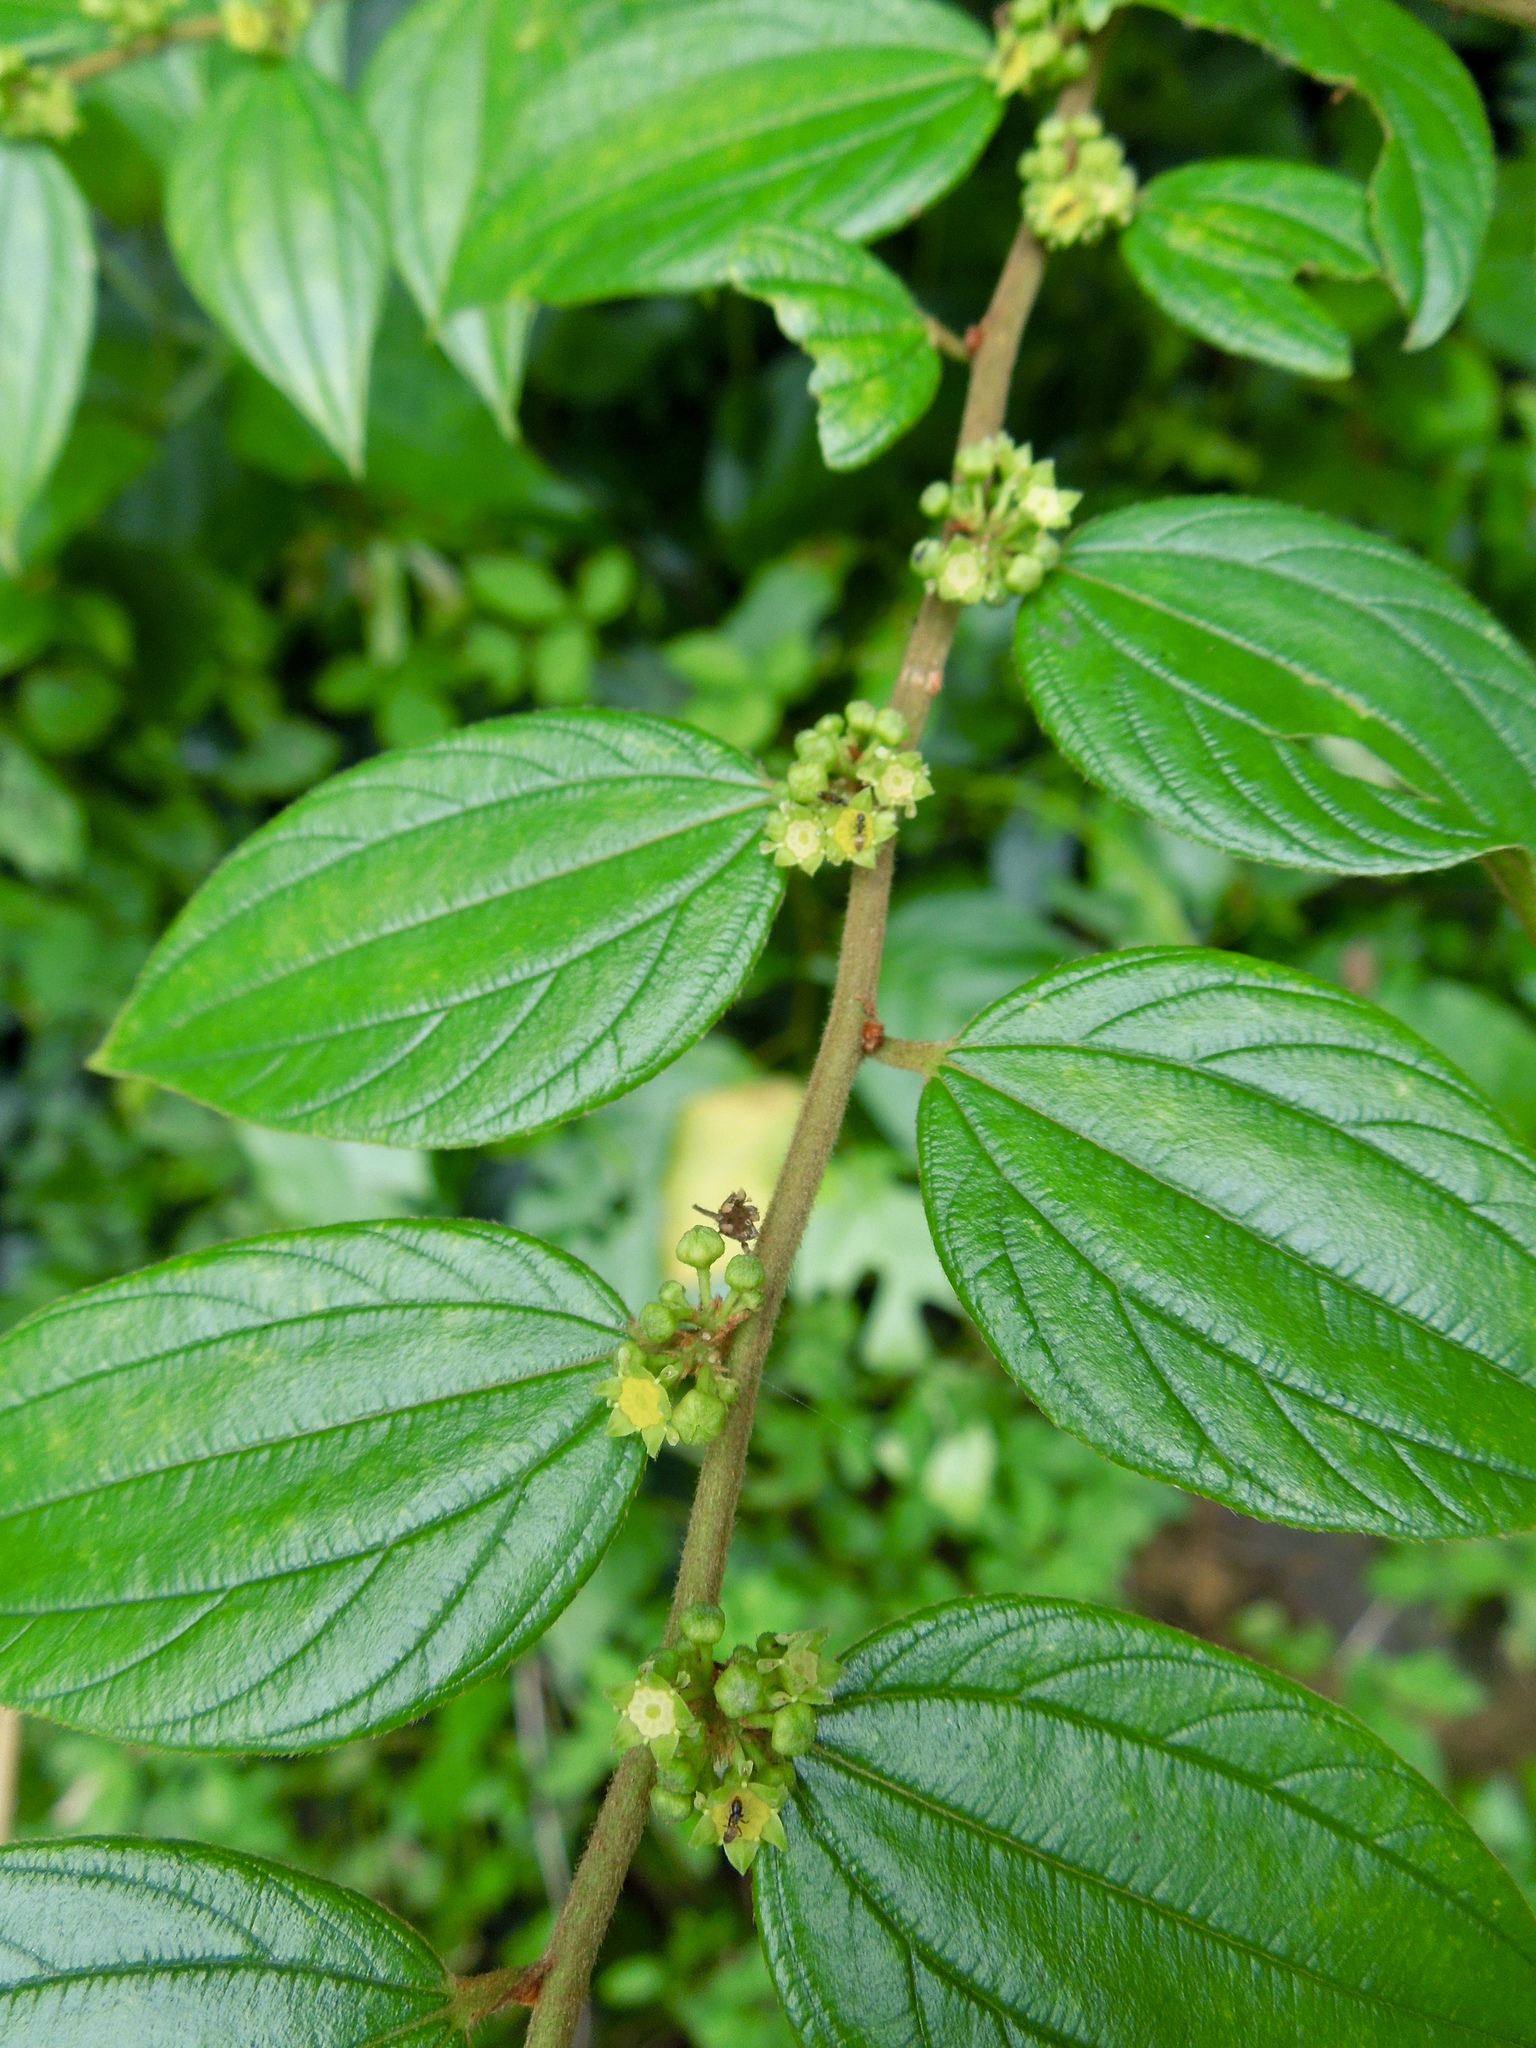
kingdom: Plantae
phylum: Tracheophyta
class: Magnoliopsida
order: Rosales
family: Rhamnaceae
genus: Ziziphus
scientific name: Ziziphus oenopolia
